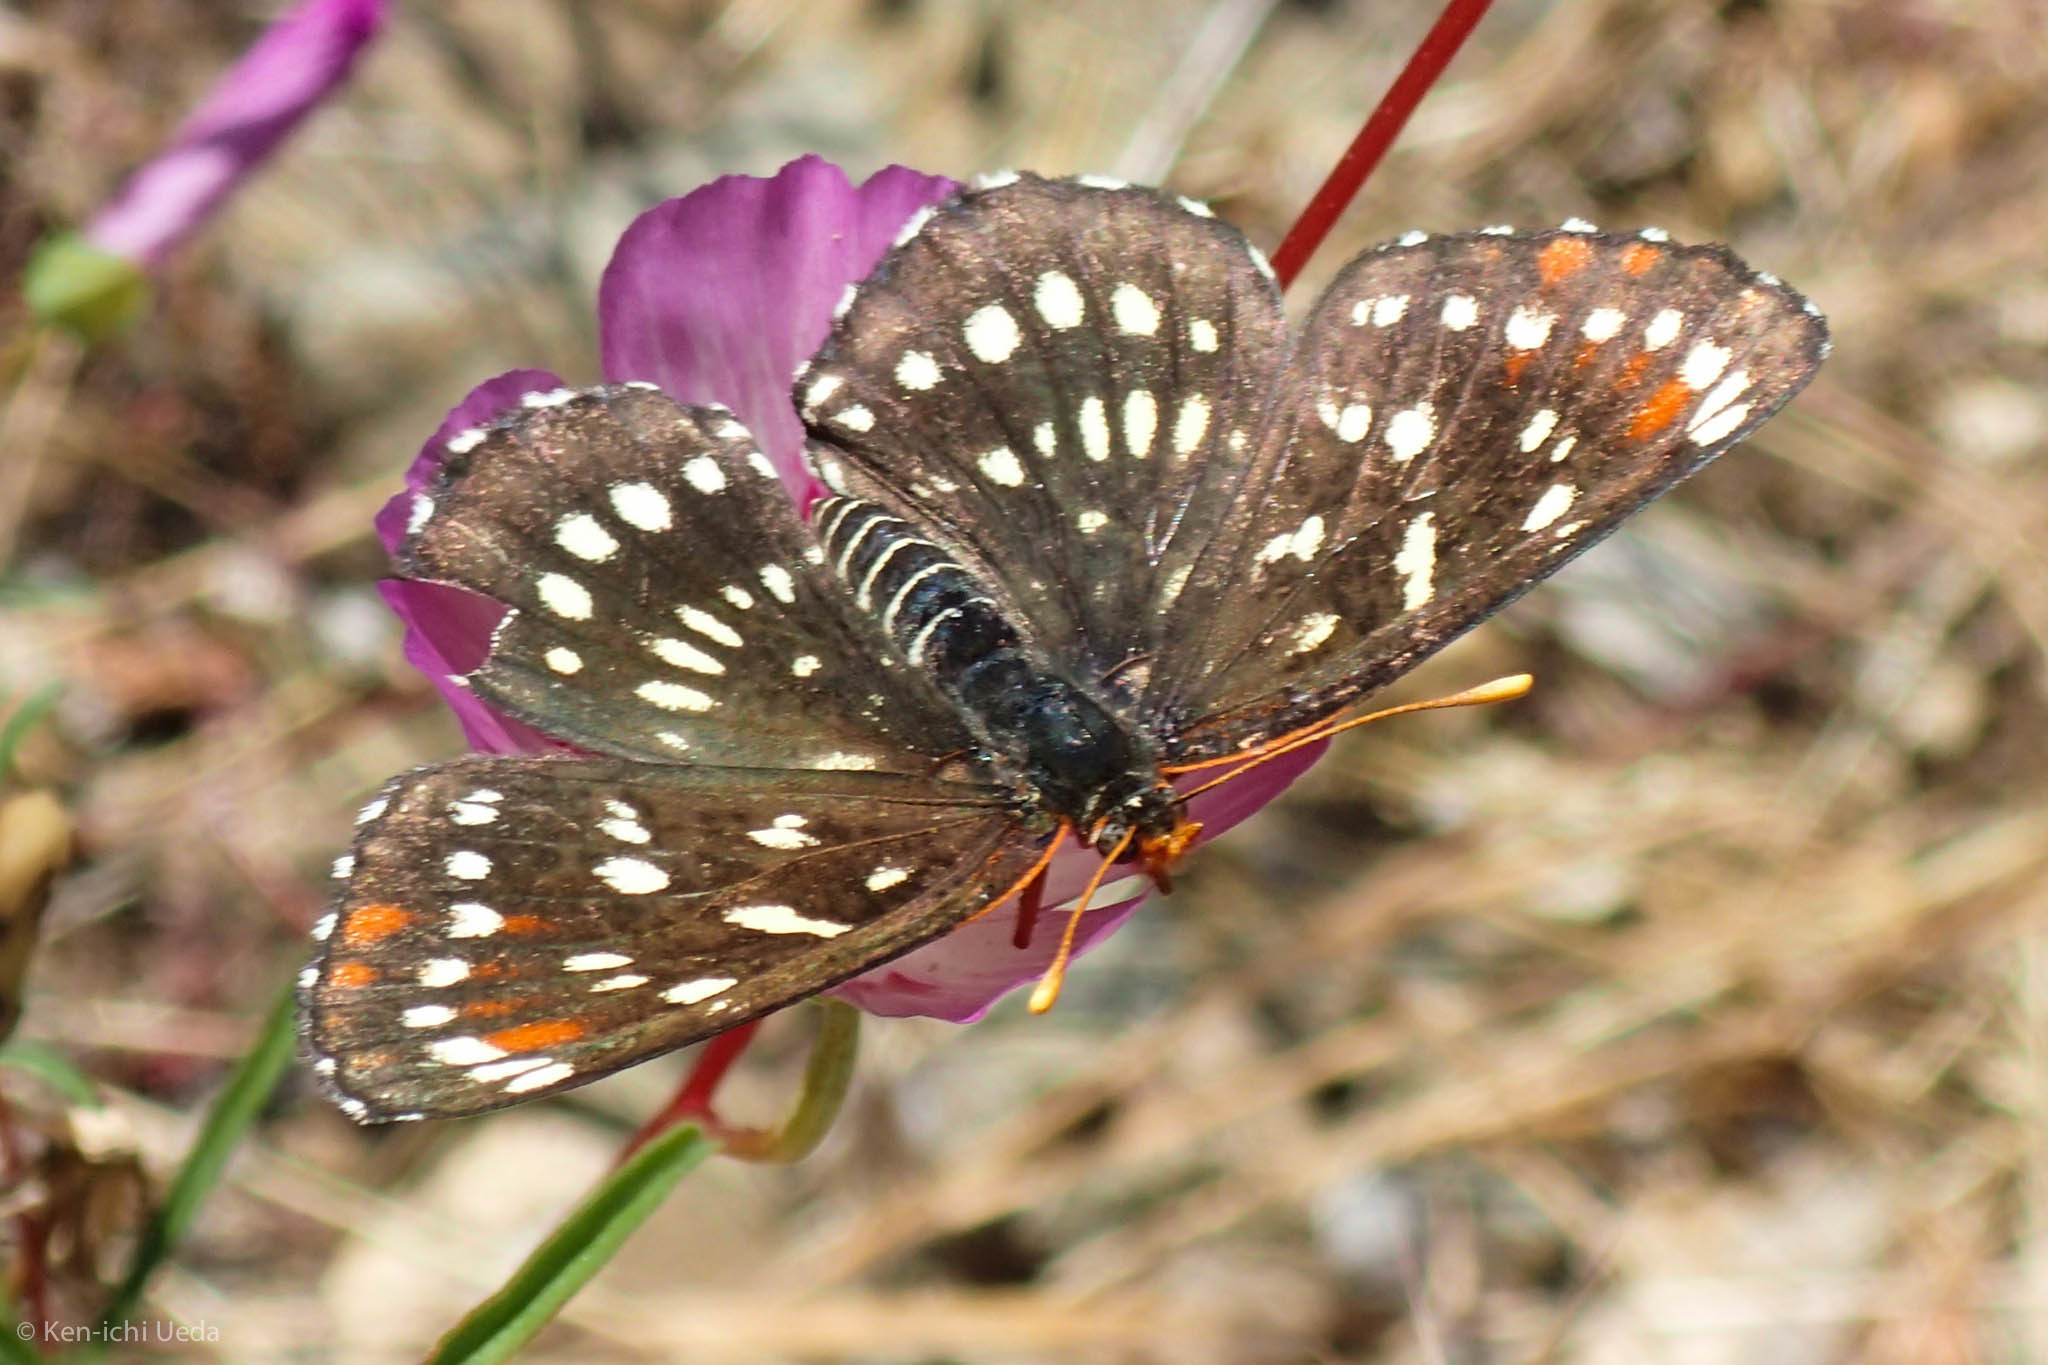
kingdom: Animalia
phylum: Arthropoda
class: Insecta
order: Lepidoptera
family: Nymphalidae
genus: Thessalia
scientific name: Thessalia leanira
